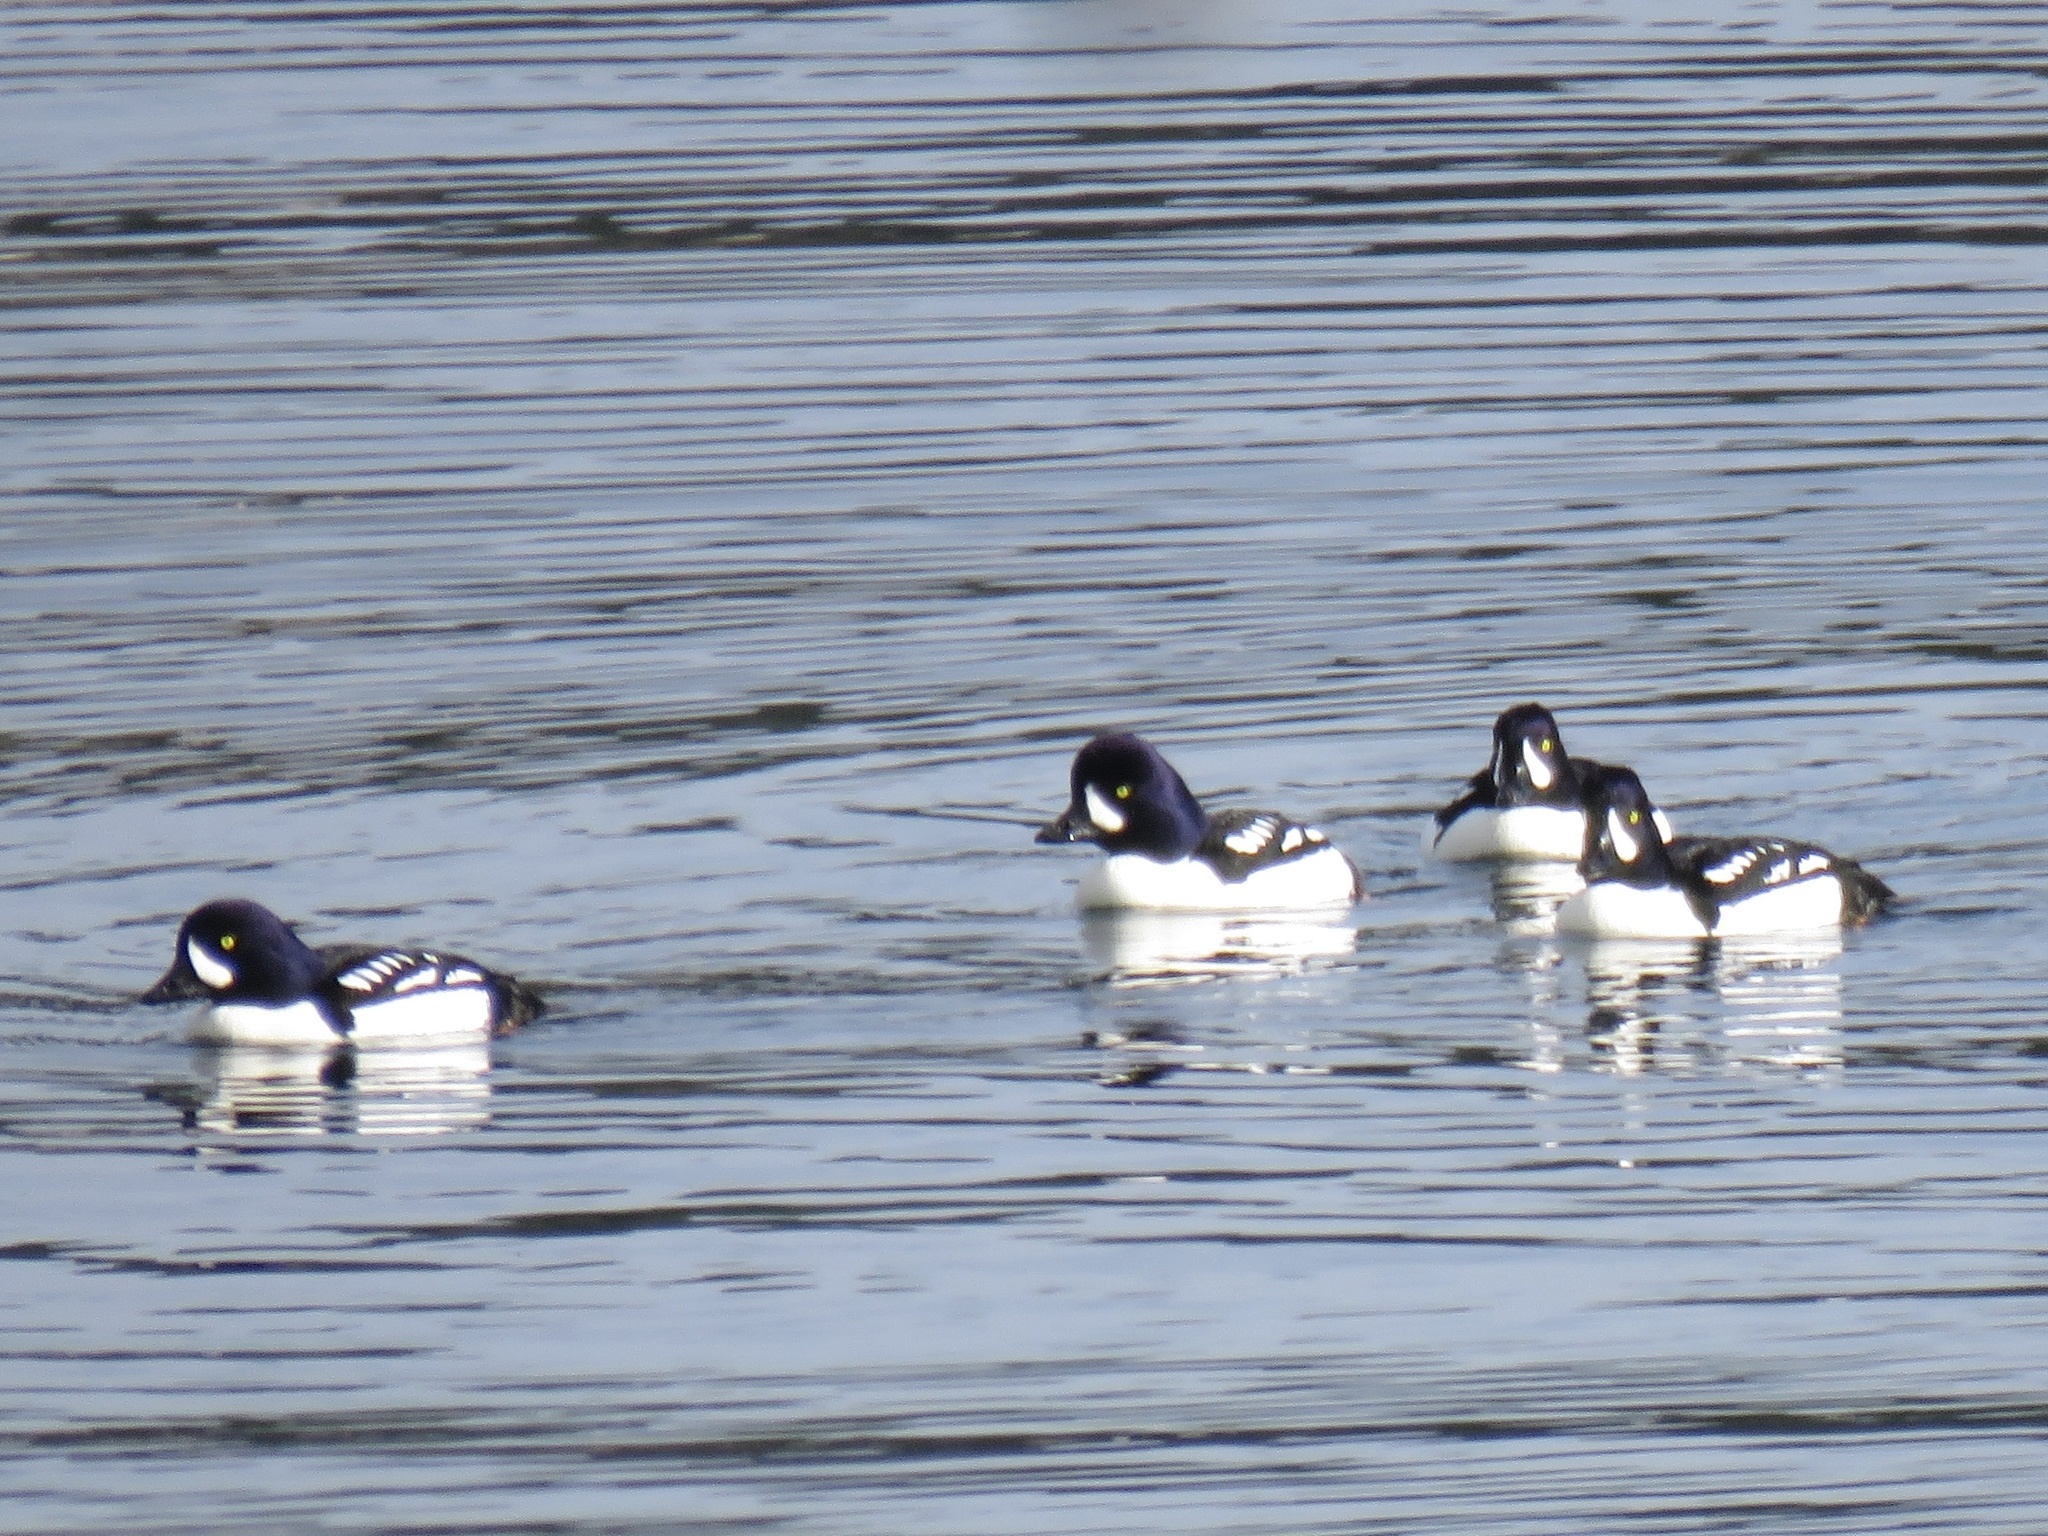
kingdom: Animalia
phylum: Chordata
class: Aves
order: Anseriformes
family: Anatidae
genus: Bucephala
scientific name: Bucephala islandica
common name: Barrow's goldeneye
